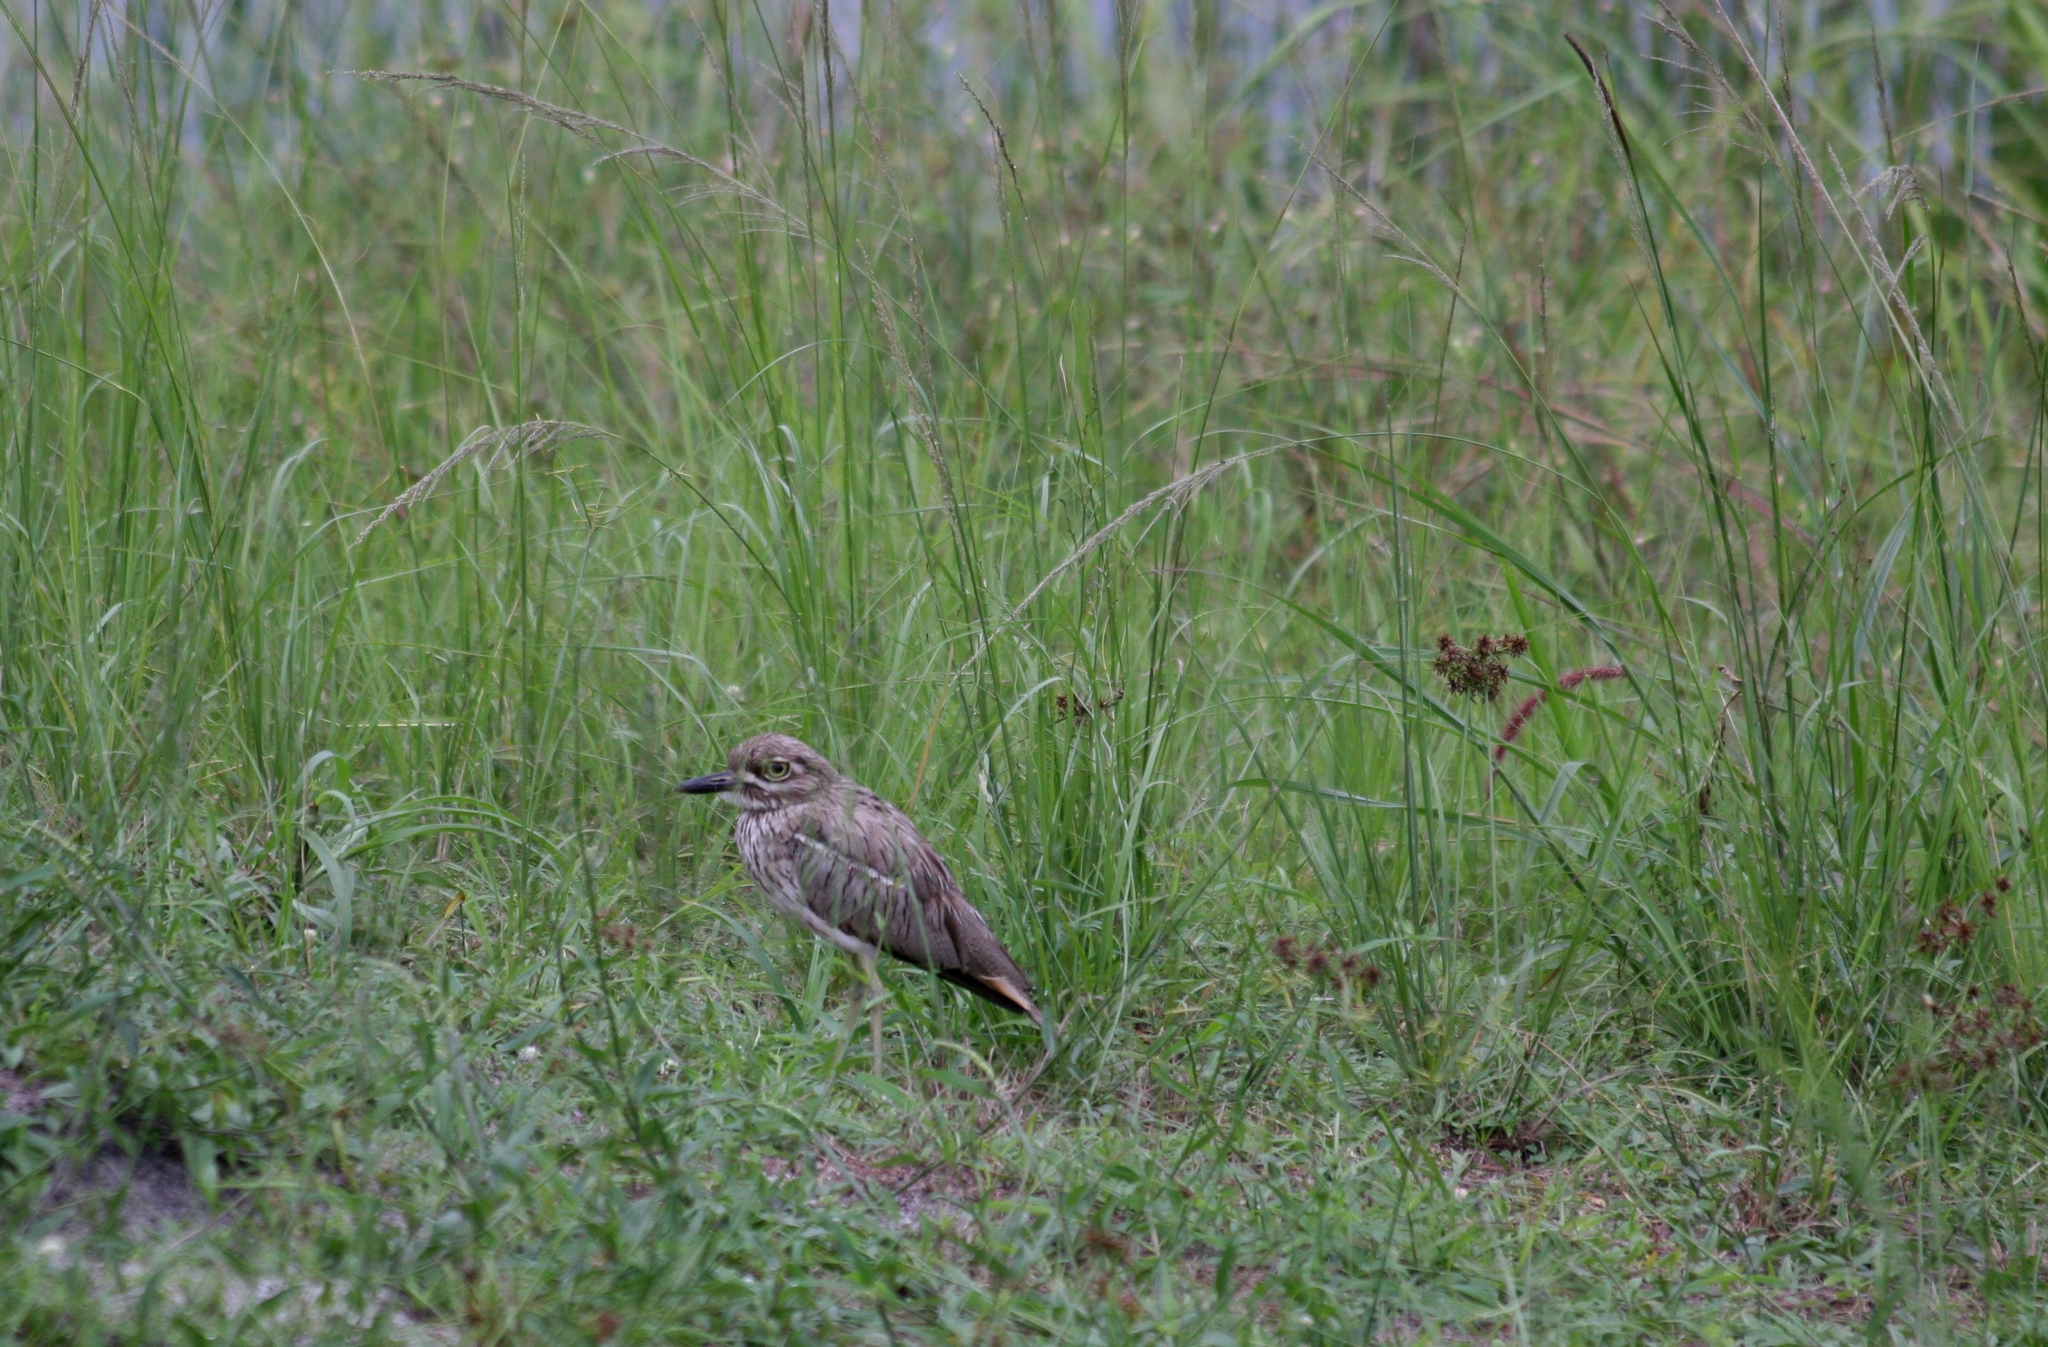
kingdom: Animalia
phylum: Chordata
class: Aves
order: Charadriiformes
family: Burhinidae
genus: Burhinus
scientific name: Burhinus vermiculatus
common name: Water thick-knee
